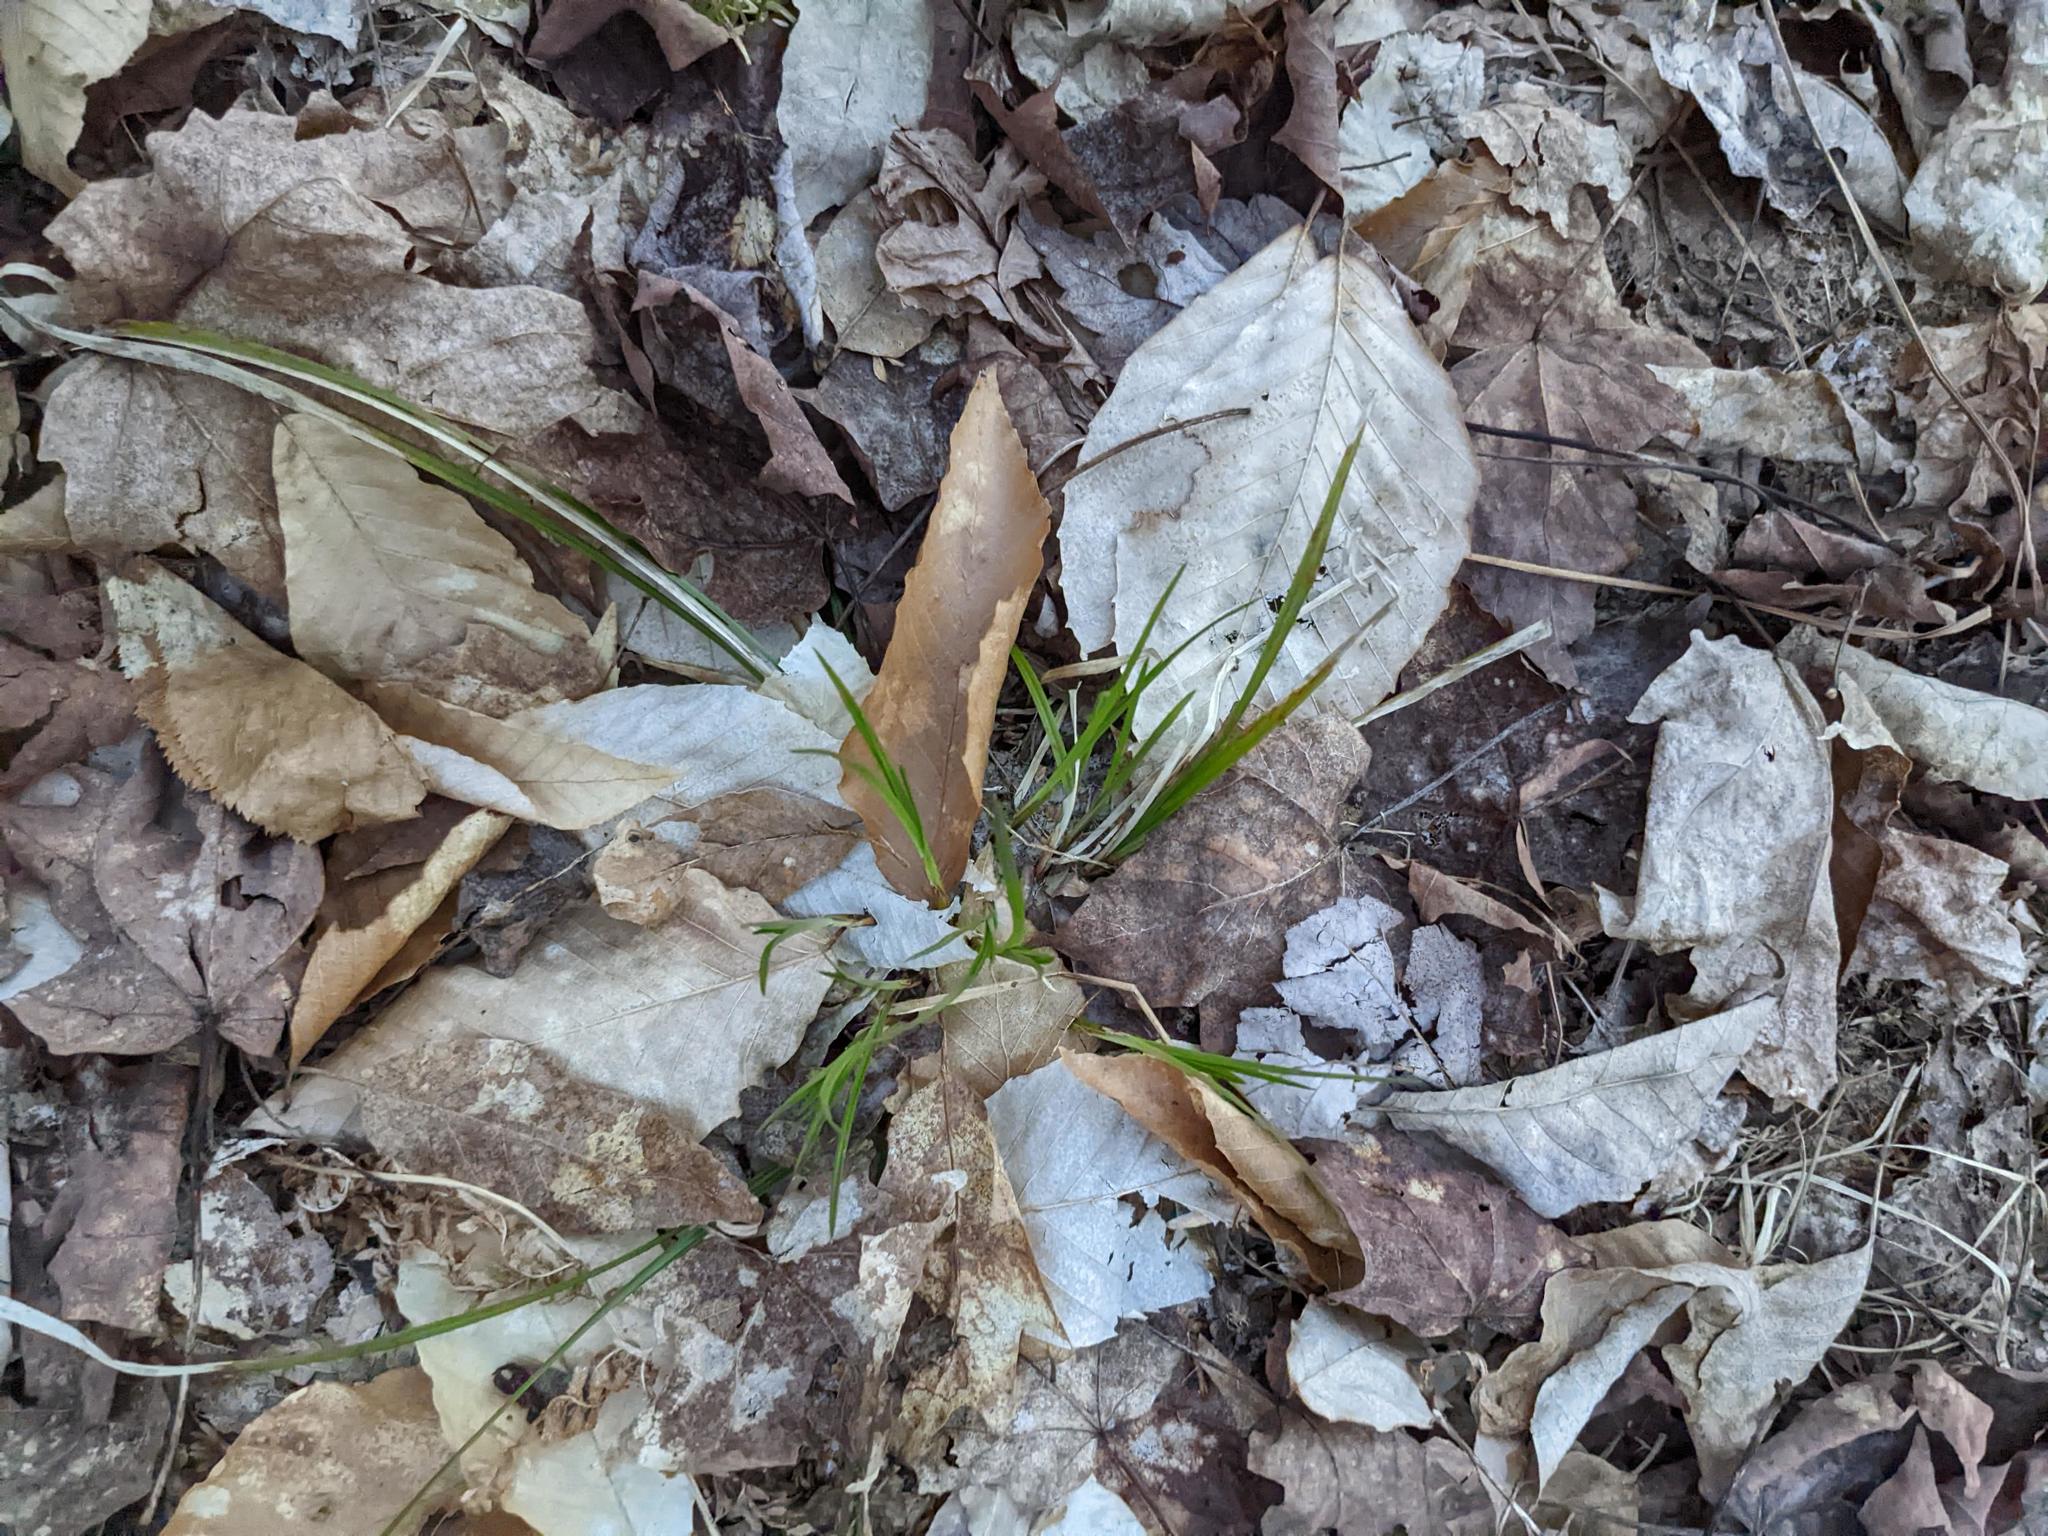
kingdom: Plantae
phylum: Tracheophyta
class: Magnoliopsida
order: Fagales
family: Fagaceae
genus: Fagus
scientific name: Fagus grandifolia
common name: American beech
